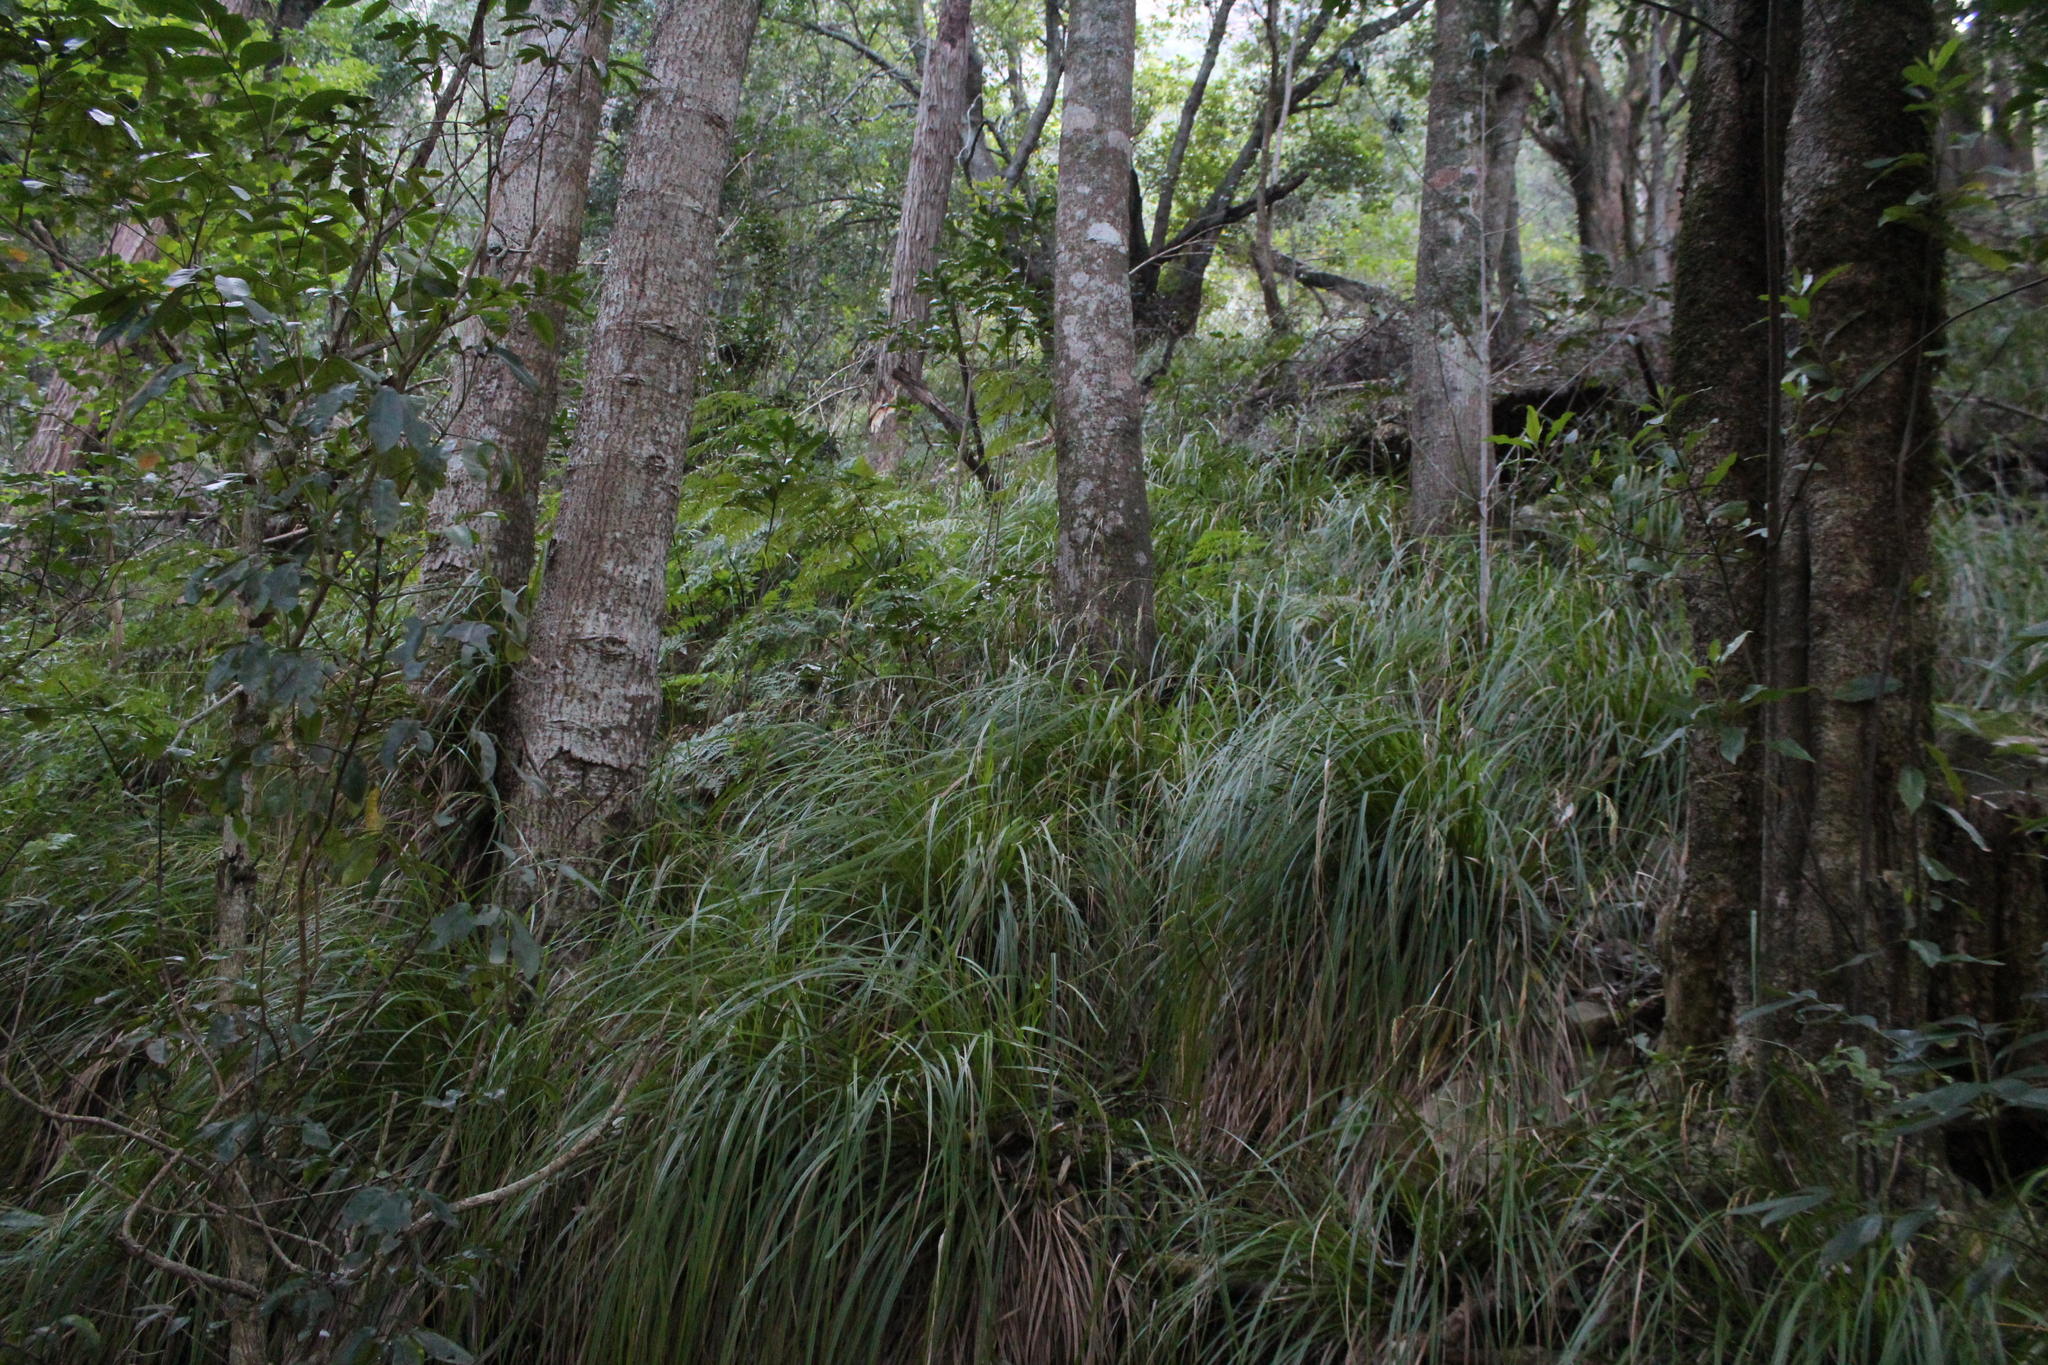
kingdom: Plantae
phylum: Tracheophyta
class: Liliopsida
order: Poales
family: Cyperaceae
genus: Carex
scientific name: Carex lancea
